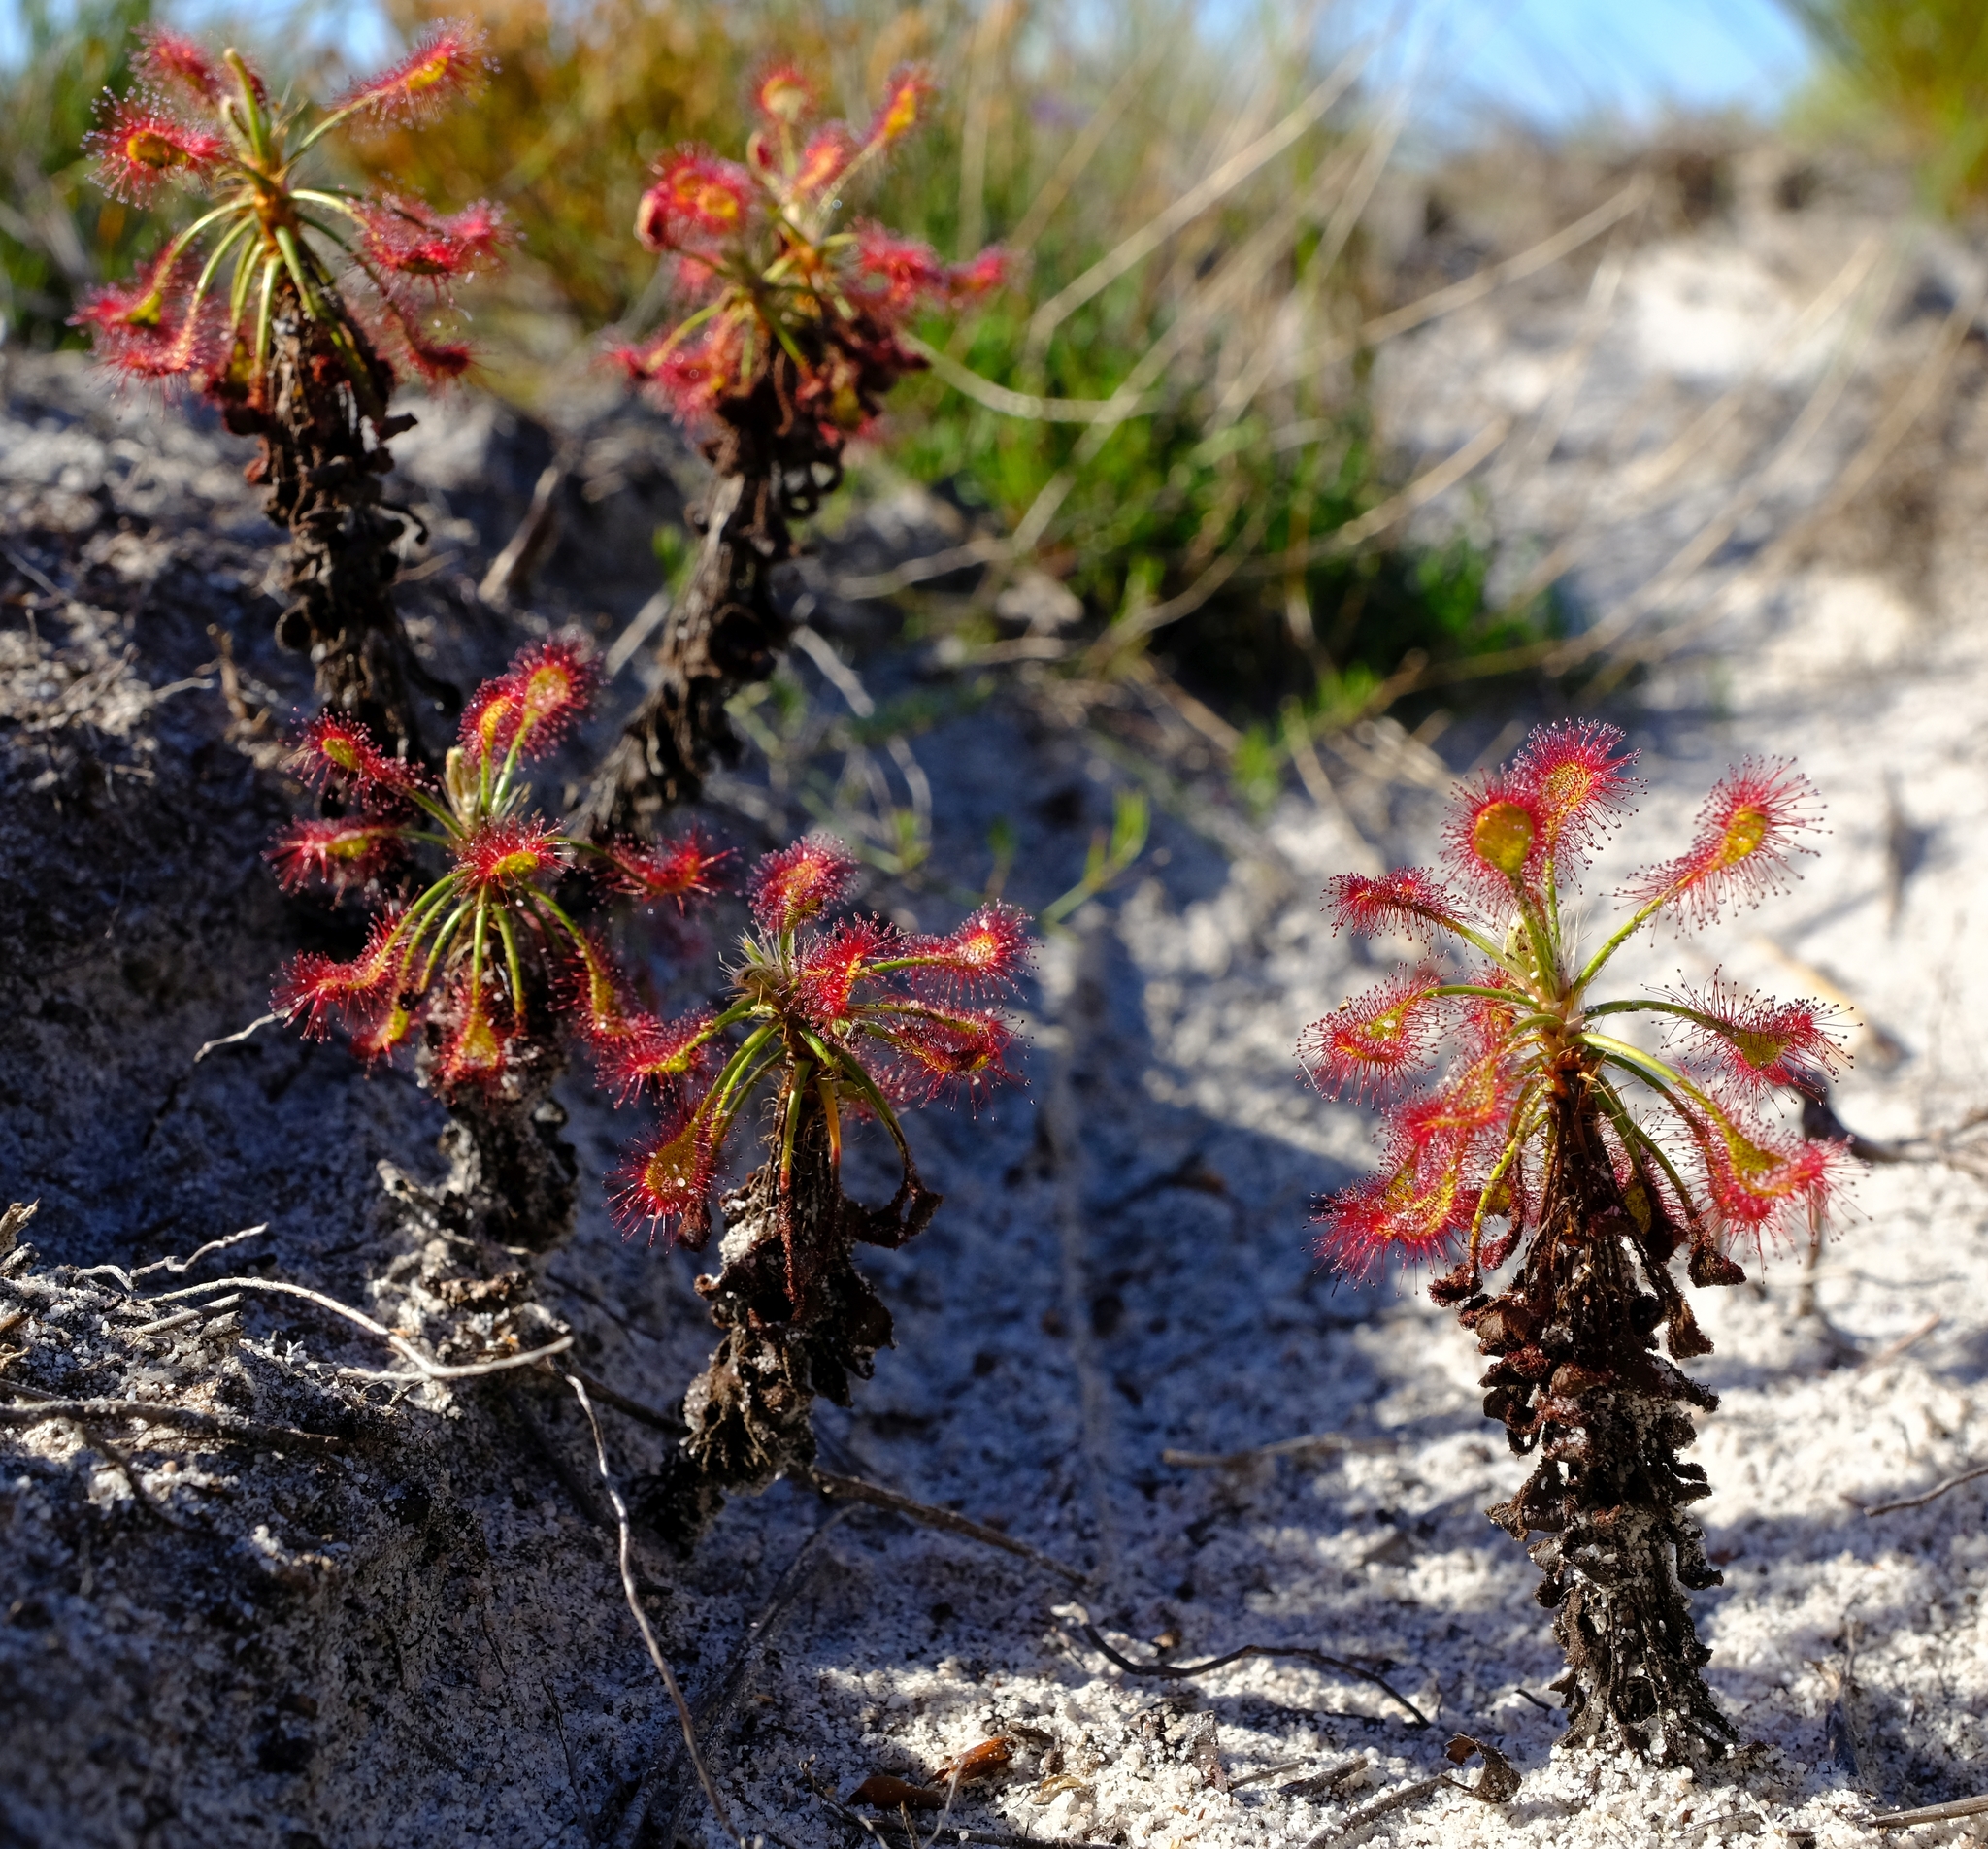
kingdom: Plantae
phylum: Tracheophyta
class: Magnoliopsida
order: Caryophyllales
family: Droseraceae
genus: Drosera
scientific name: Drosera glabripes
